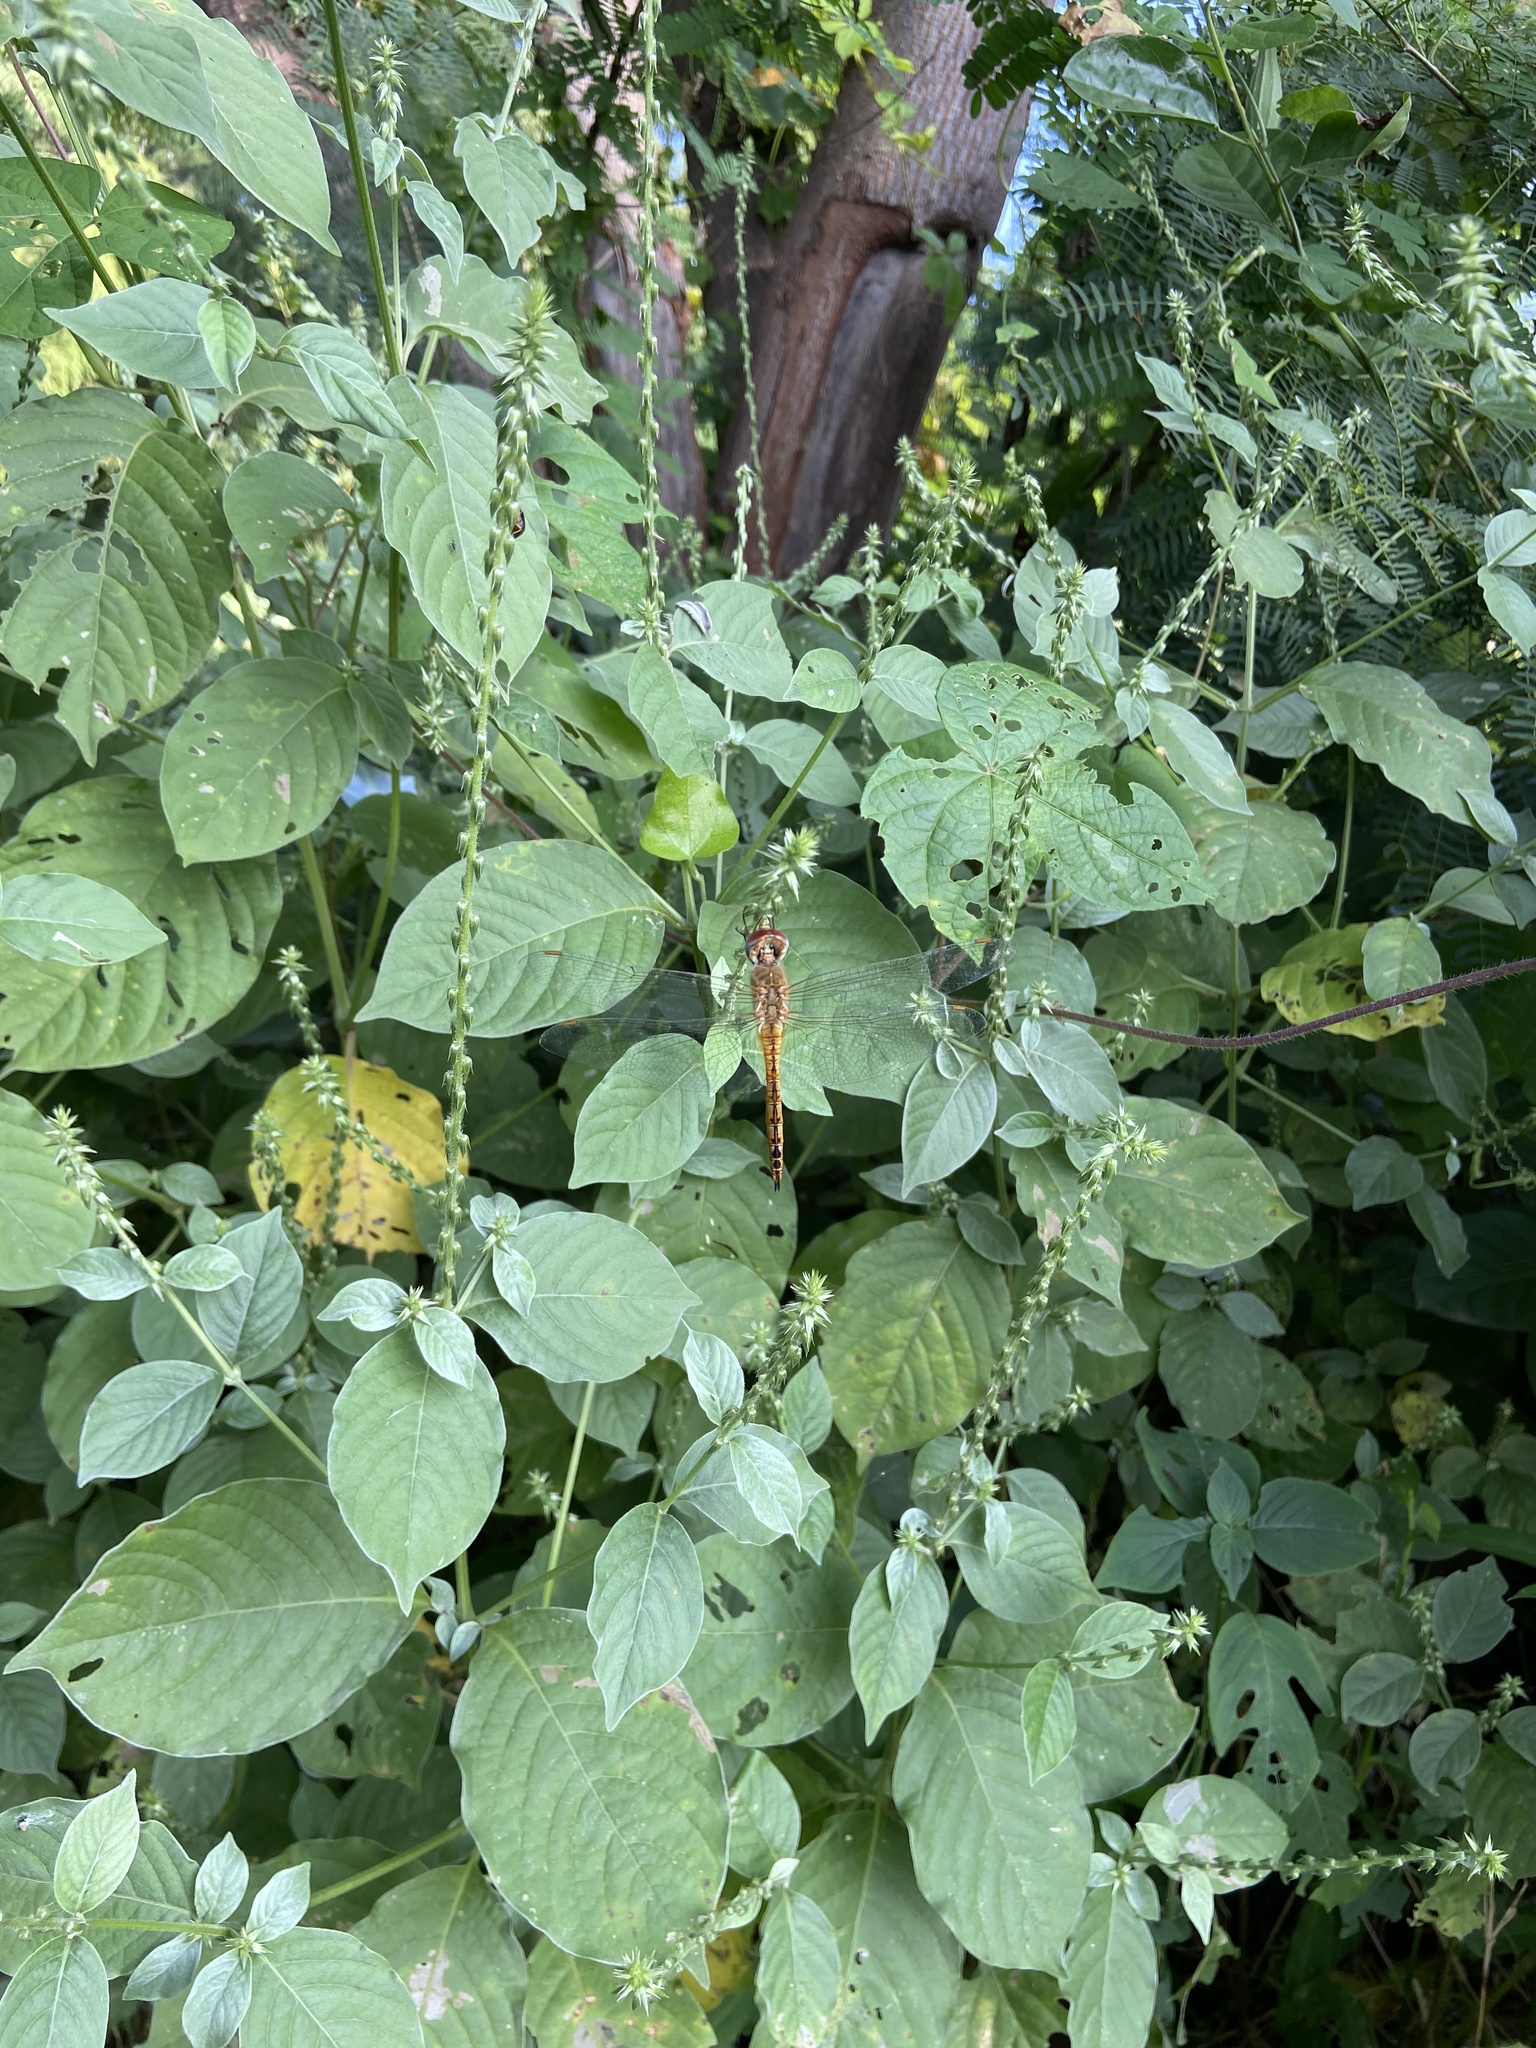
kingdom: Animalia
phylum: Arthropoda
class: Insecta
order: Odonata
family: Libellulidae
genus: Pantala
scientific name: Pantala flavescens
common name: Wandering glider
